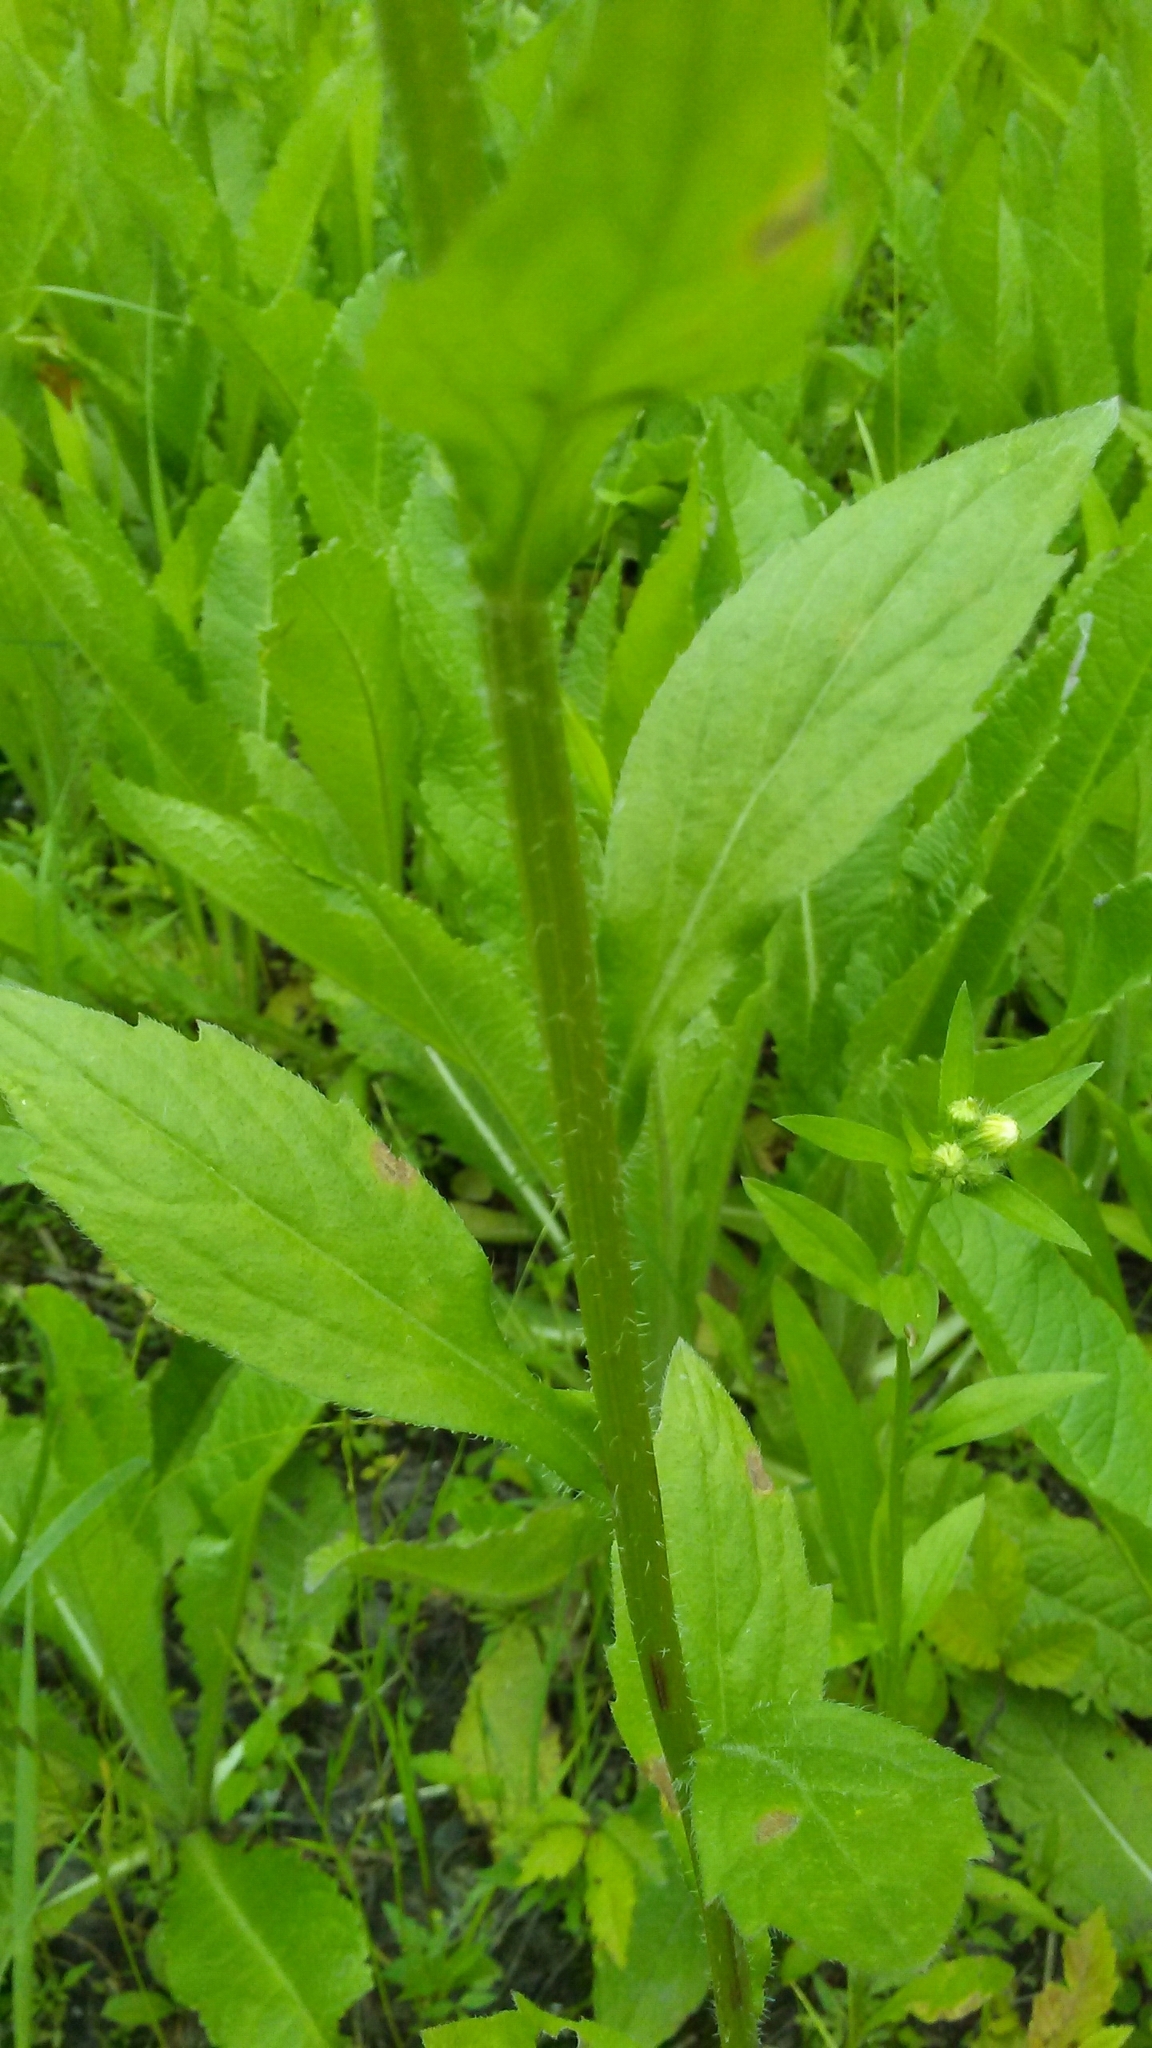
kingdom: Plantae
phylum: Tracheophyta
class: Magnoliopsida
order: Asterales
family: Asteraceae
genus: Erigeron
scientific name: Erigeron annuus
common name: Tall fleabane
